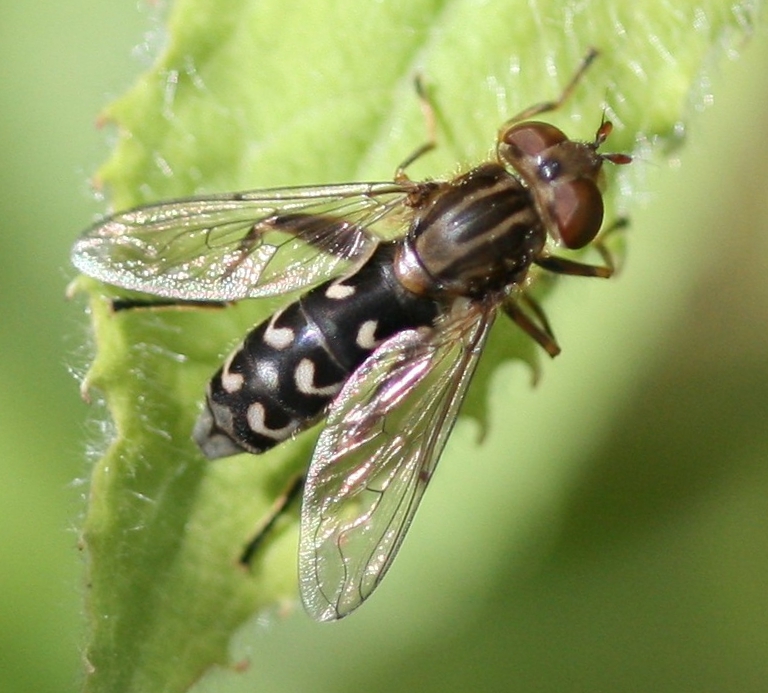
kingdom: Animalia
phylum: Arthropoda
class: Insecta
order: Diptera
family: Syrphidae
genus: Anasimyia
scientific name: Anasimyia contracta
